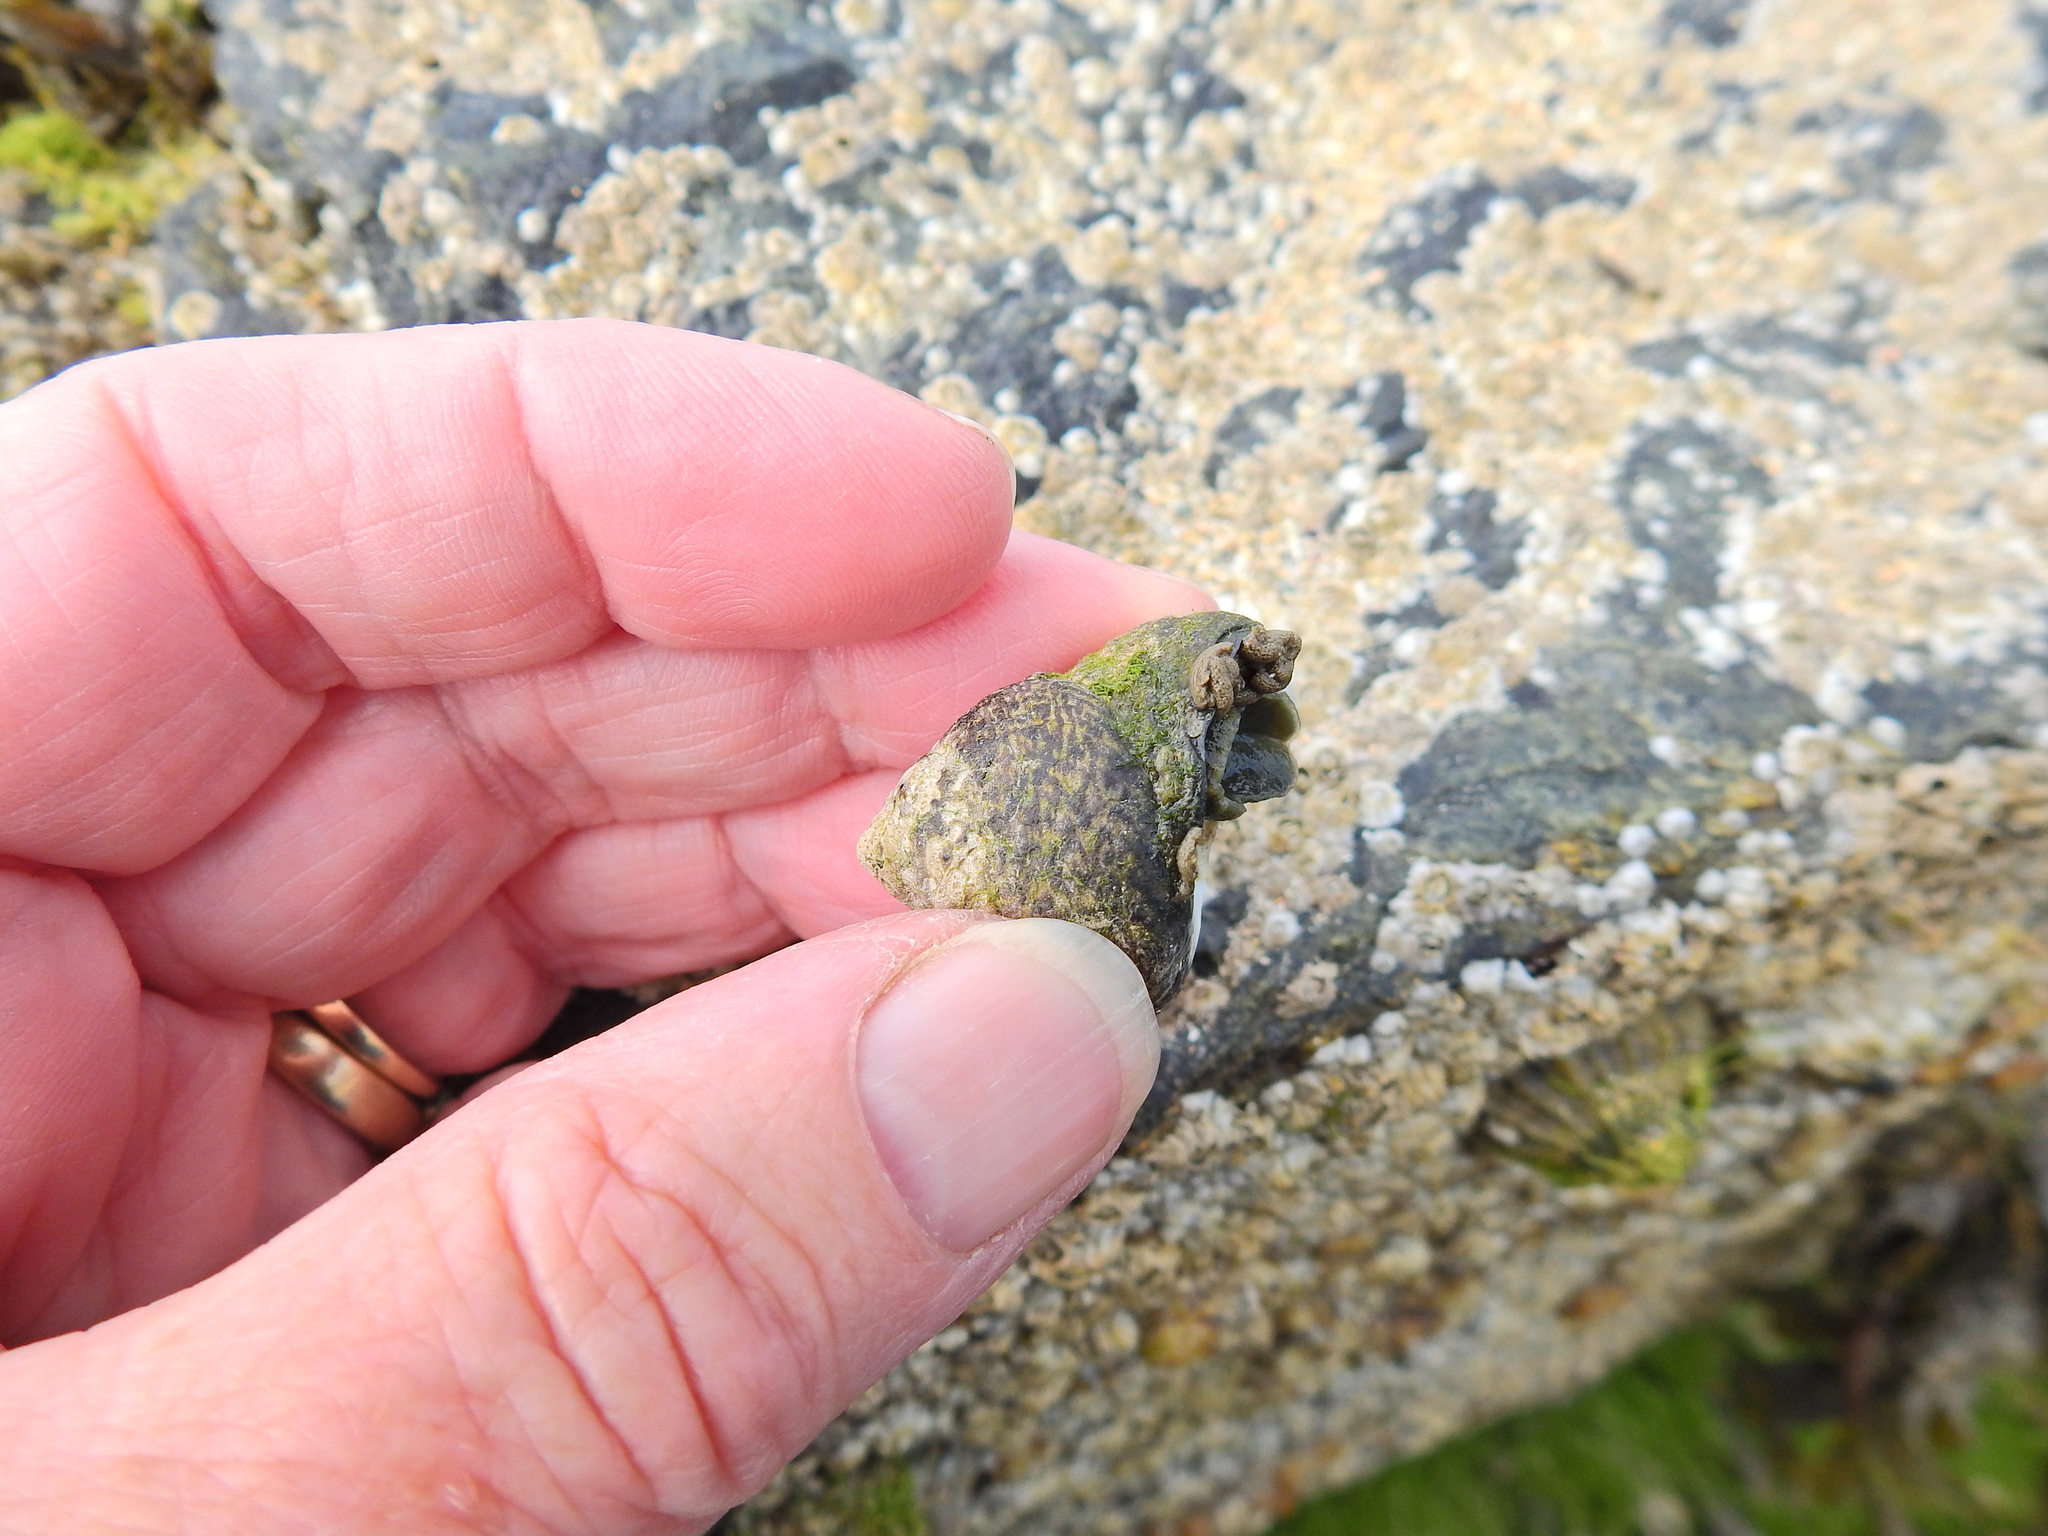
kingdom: Animalia
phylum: Mollusca
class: Gastropoda
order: Trochida
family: Trochidae
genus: Phorcus
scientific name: Phorcus lineatus
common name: Toothed top shell
